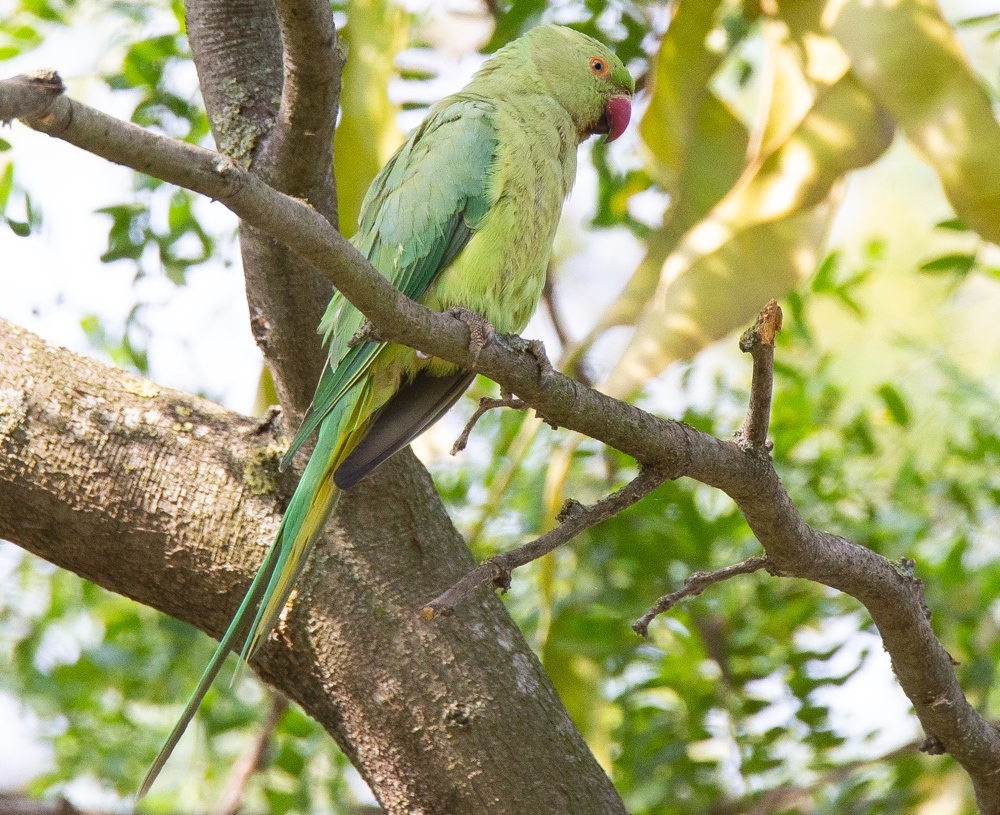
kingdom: Animalia
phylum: Chordata
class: Aves
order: Psittaciformes
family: Psittacidae
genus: Psittacula
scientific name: Psittacula krameri
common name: Rose-ringed parakeet
